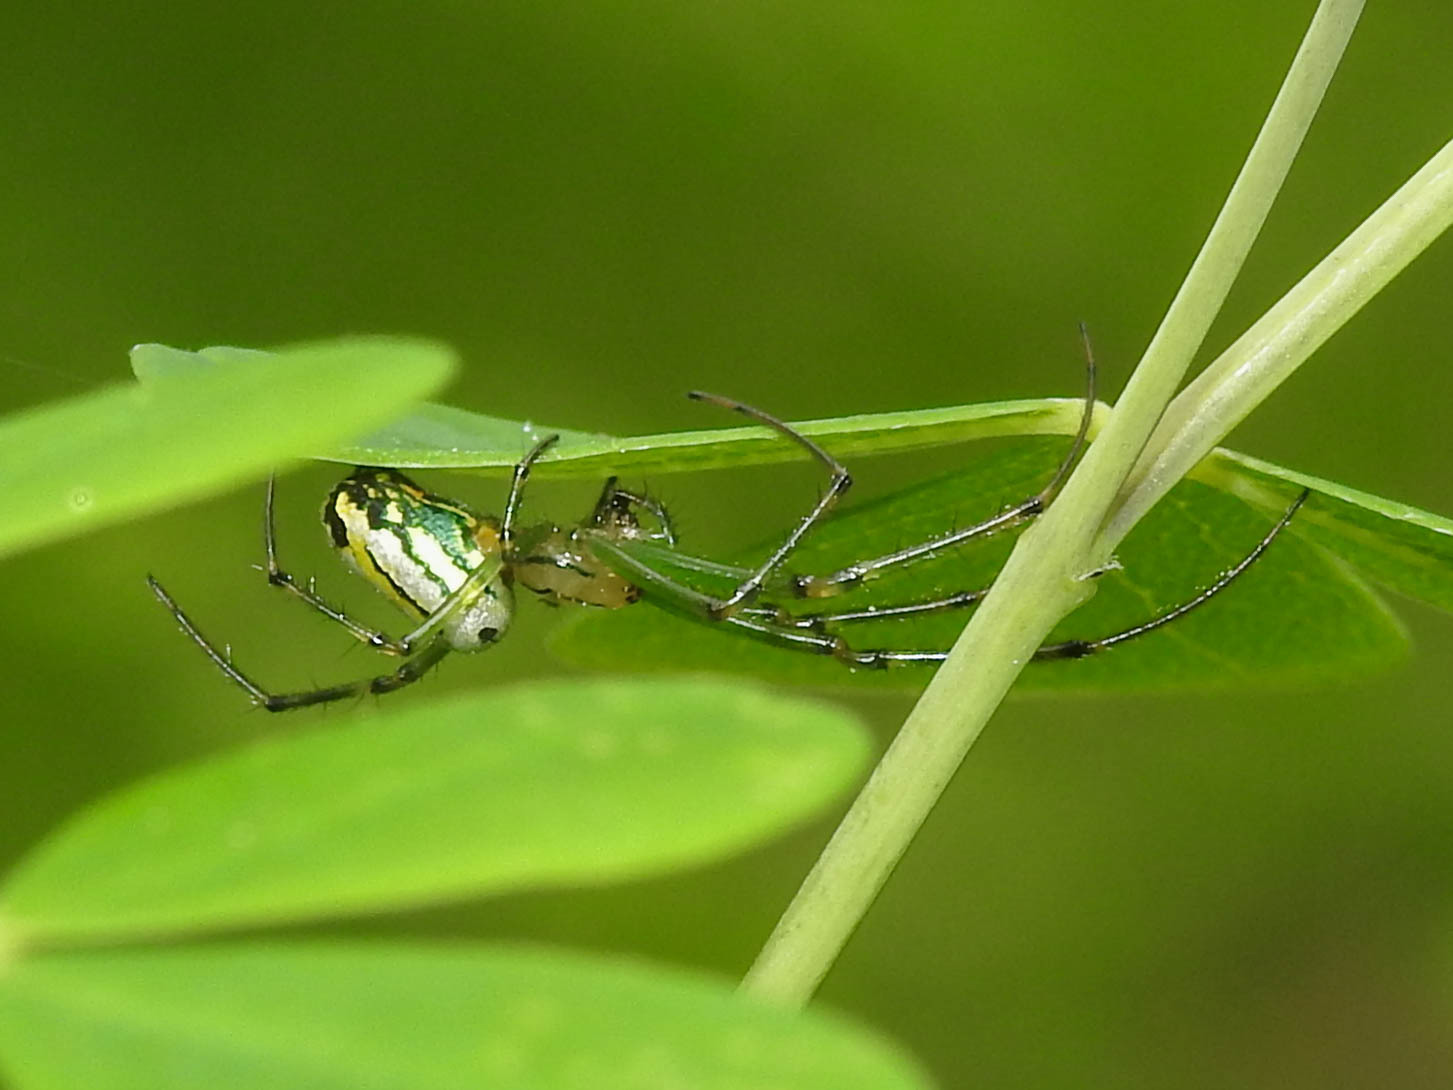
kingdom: Animalia
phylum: Arthropoda
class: Arachnida
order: Araneae
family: Tetragnathidae
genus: Leucauge
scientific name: Leucauge venusta
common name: Longjawed orb weavers
